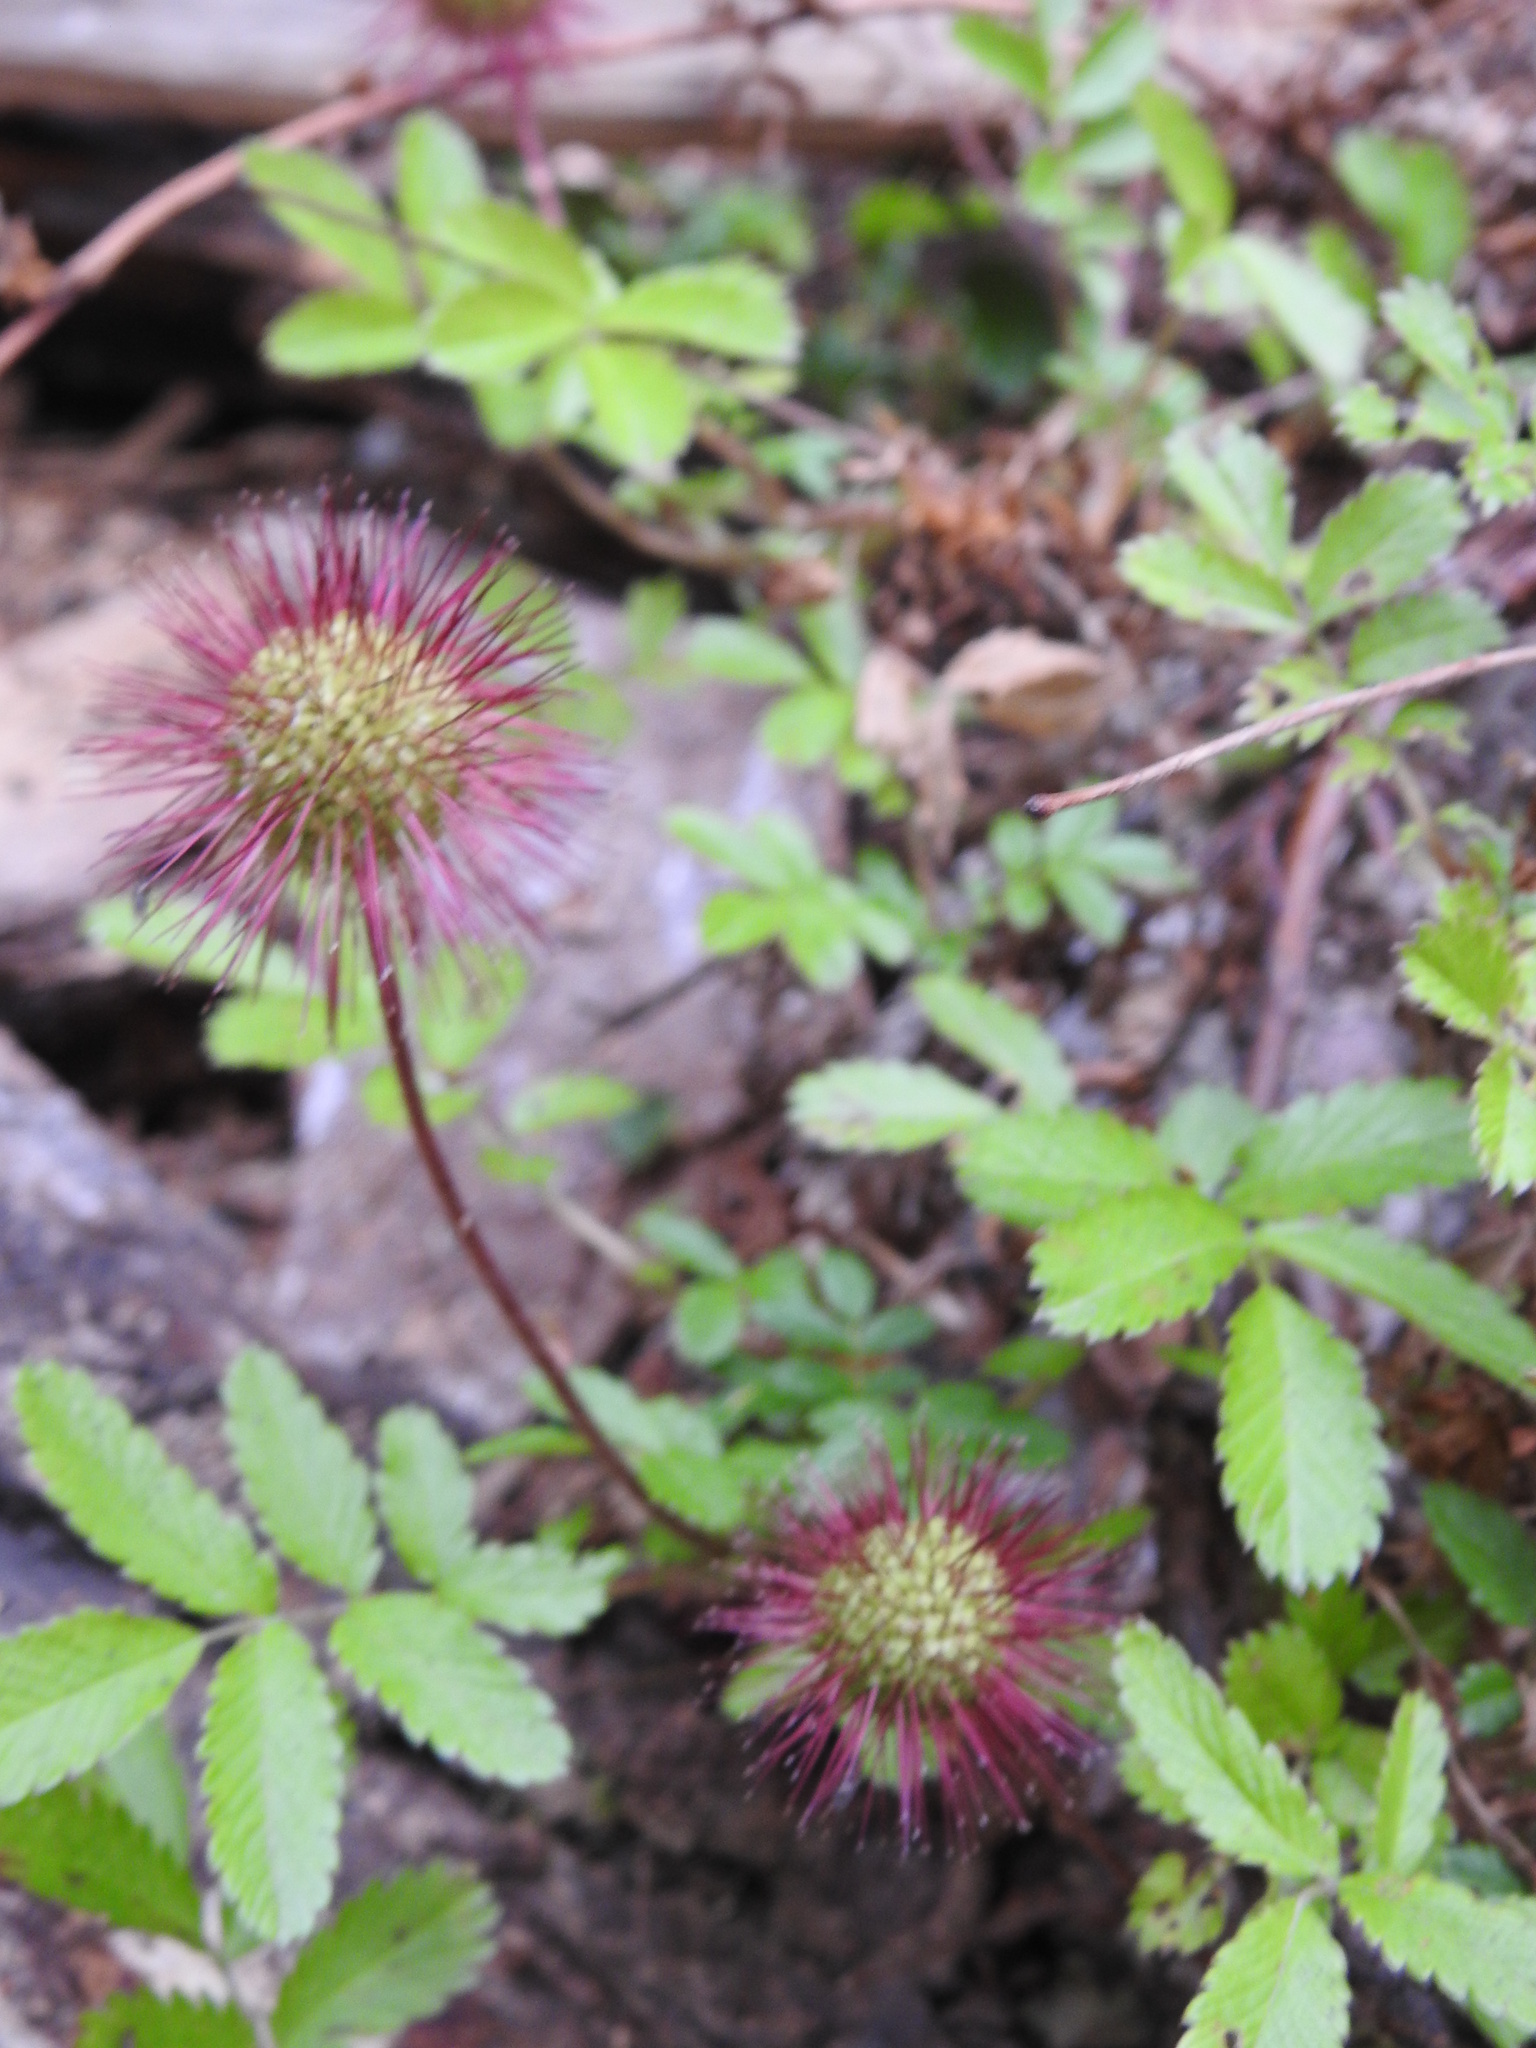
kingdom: Plantae
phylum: Tracheophyta
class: Magnoliopsida
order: Rosales
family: Rosaceae
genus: Acaena
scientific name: Acaena ovalifolia
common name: Two-spined acaena
